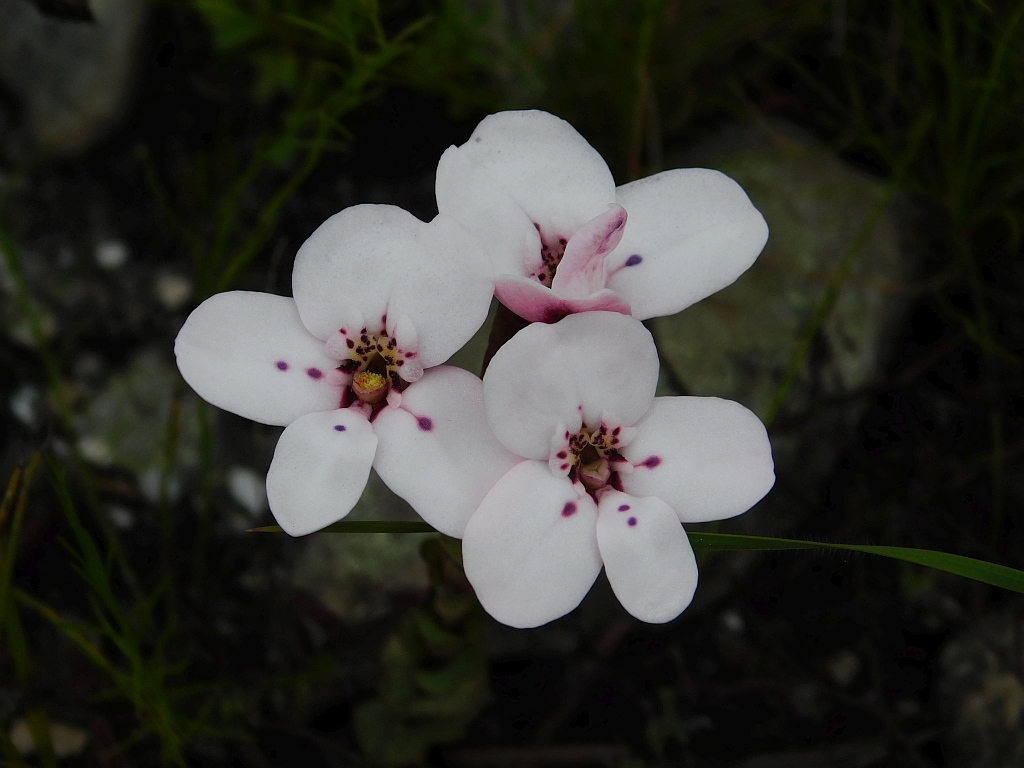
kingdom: Plantae
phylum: Tracheophyta
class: Liliopsida
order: Asparagales
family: Orchidaceae
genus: Disa
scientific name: Disa fasciata
